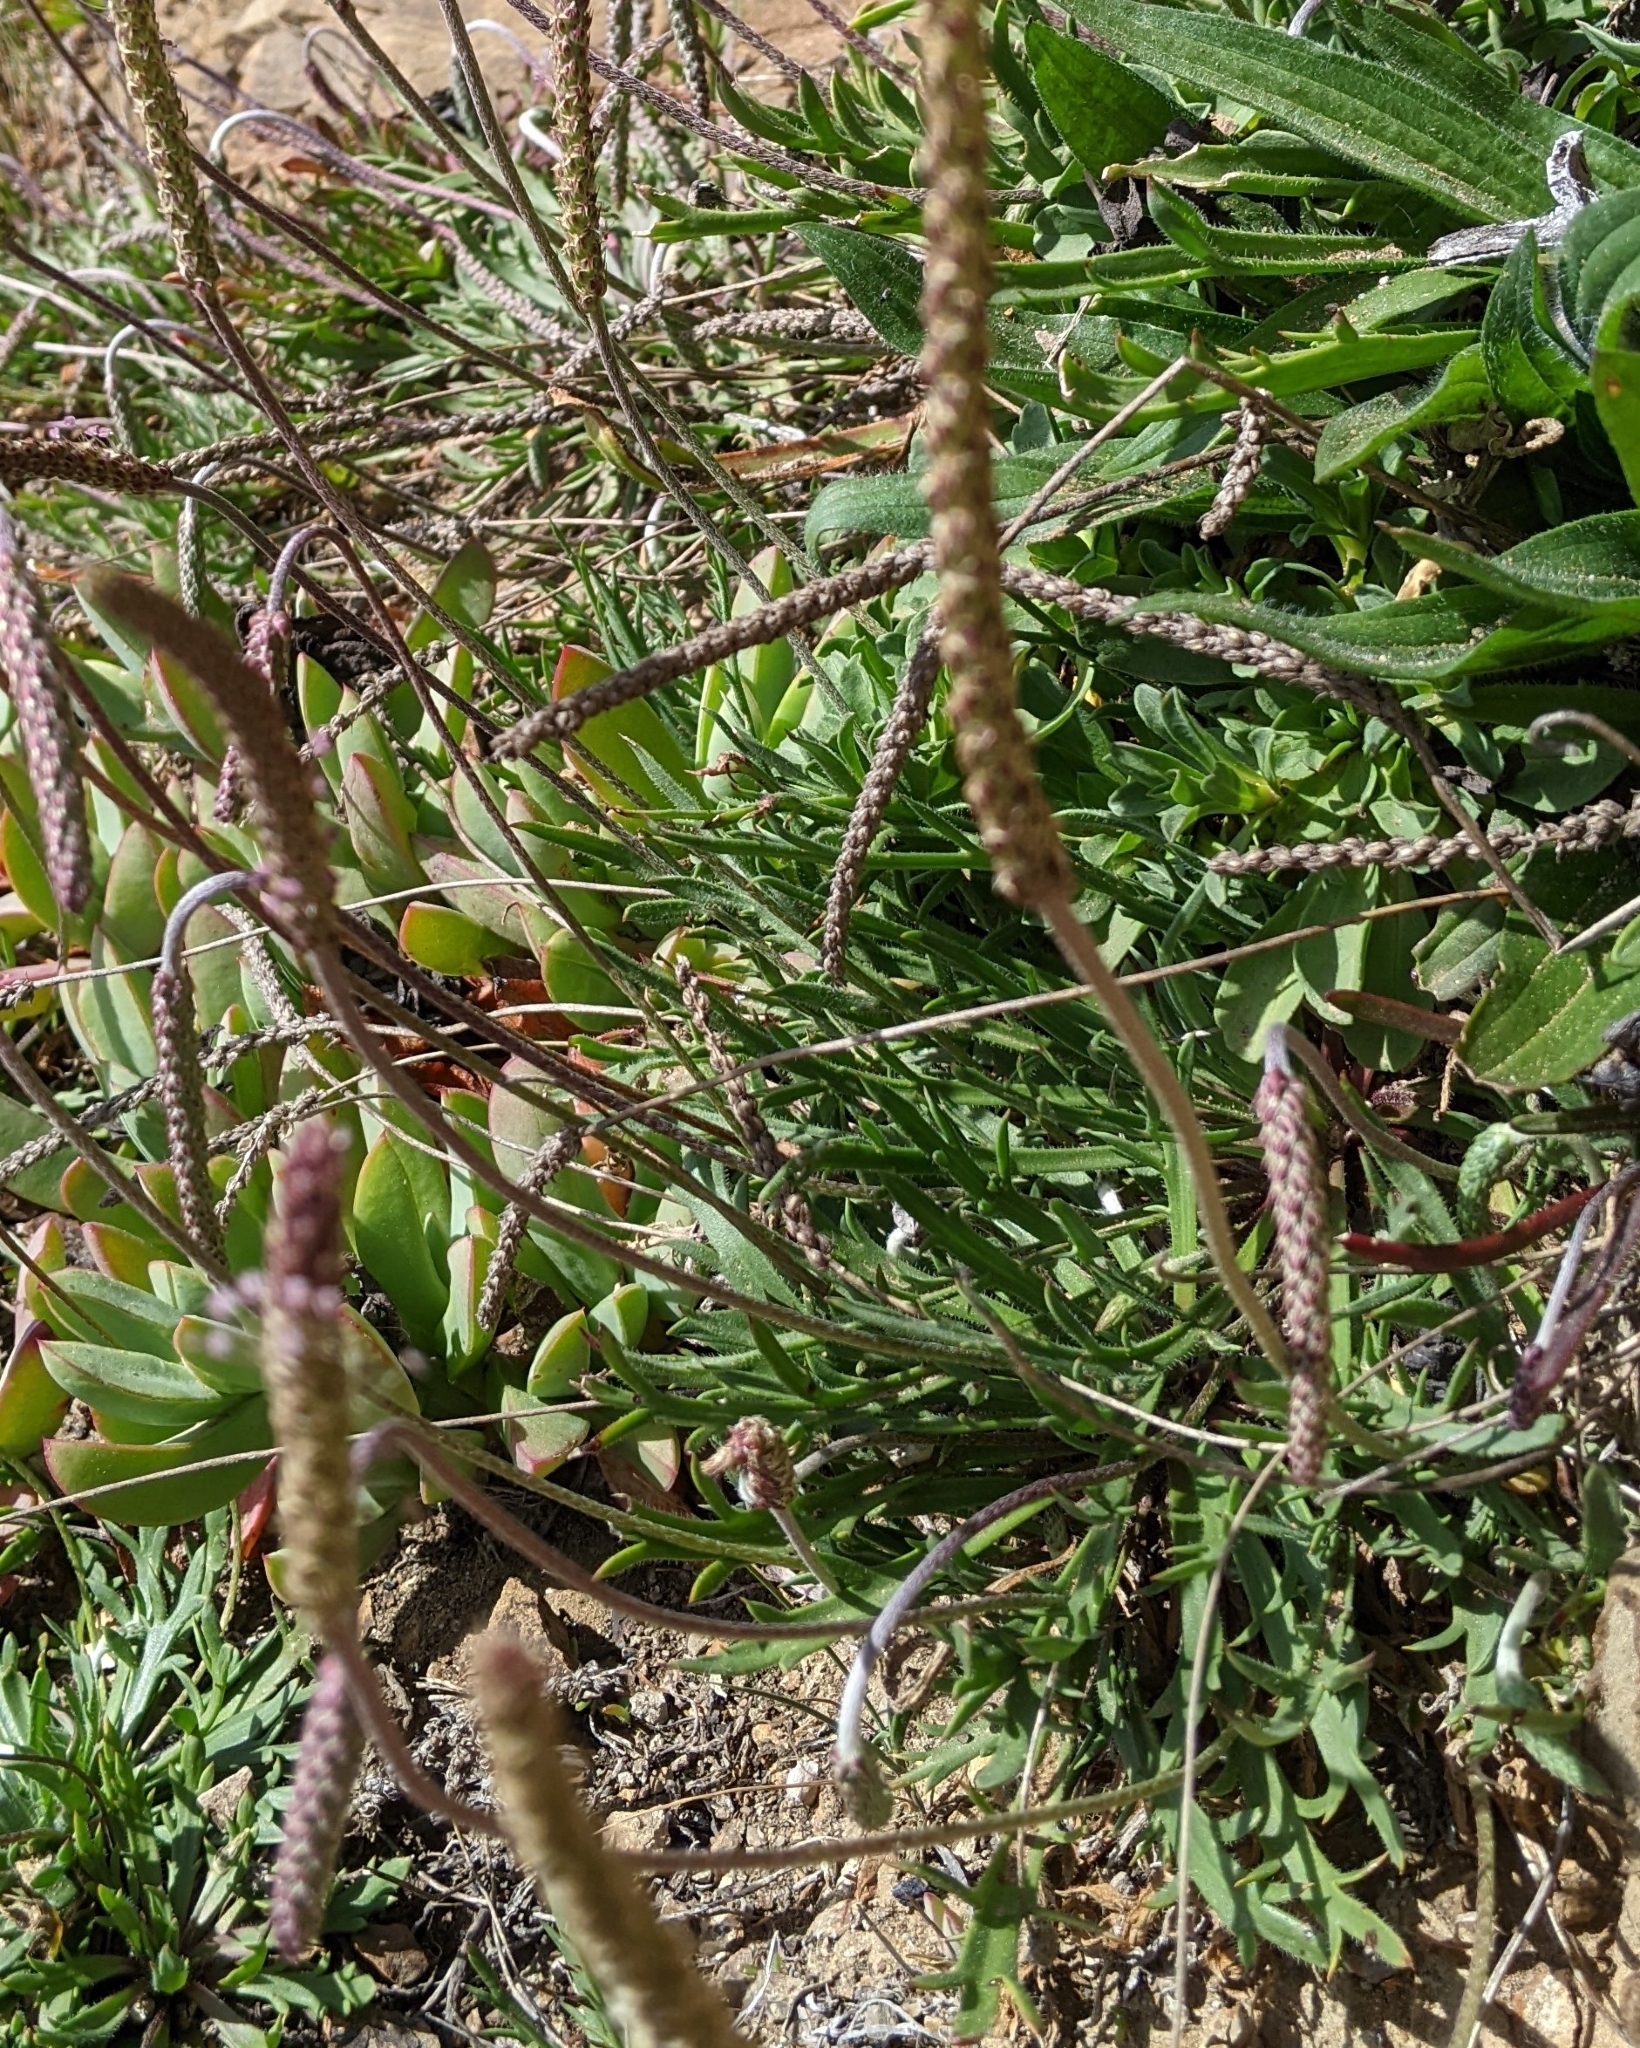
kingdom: Plantae
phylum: Tracheophyta
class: Magnoliopsida
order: Lamiales
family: Plantaginaceae
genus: Plantago
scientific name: Plantago coronopus
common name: Buck's-horn plantain
